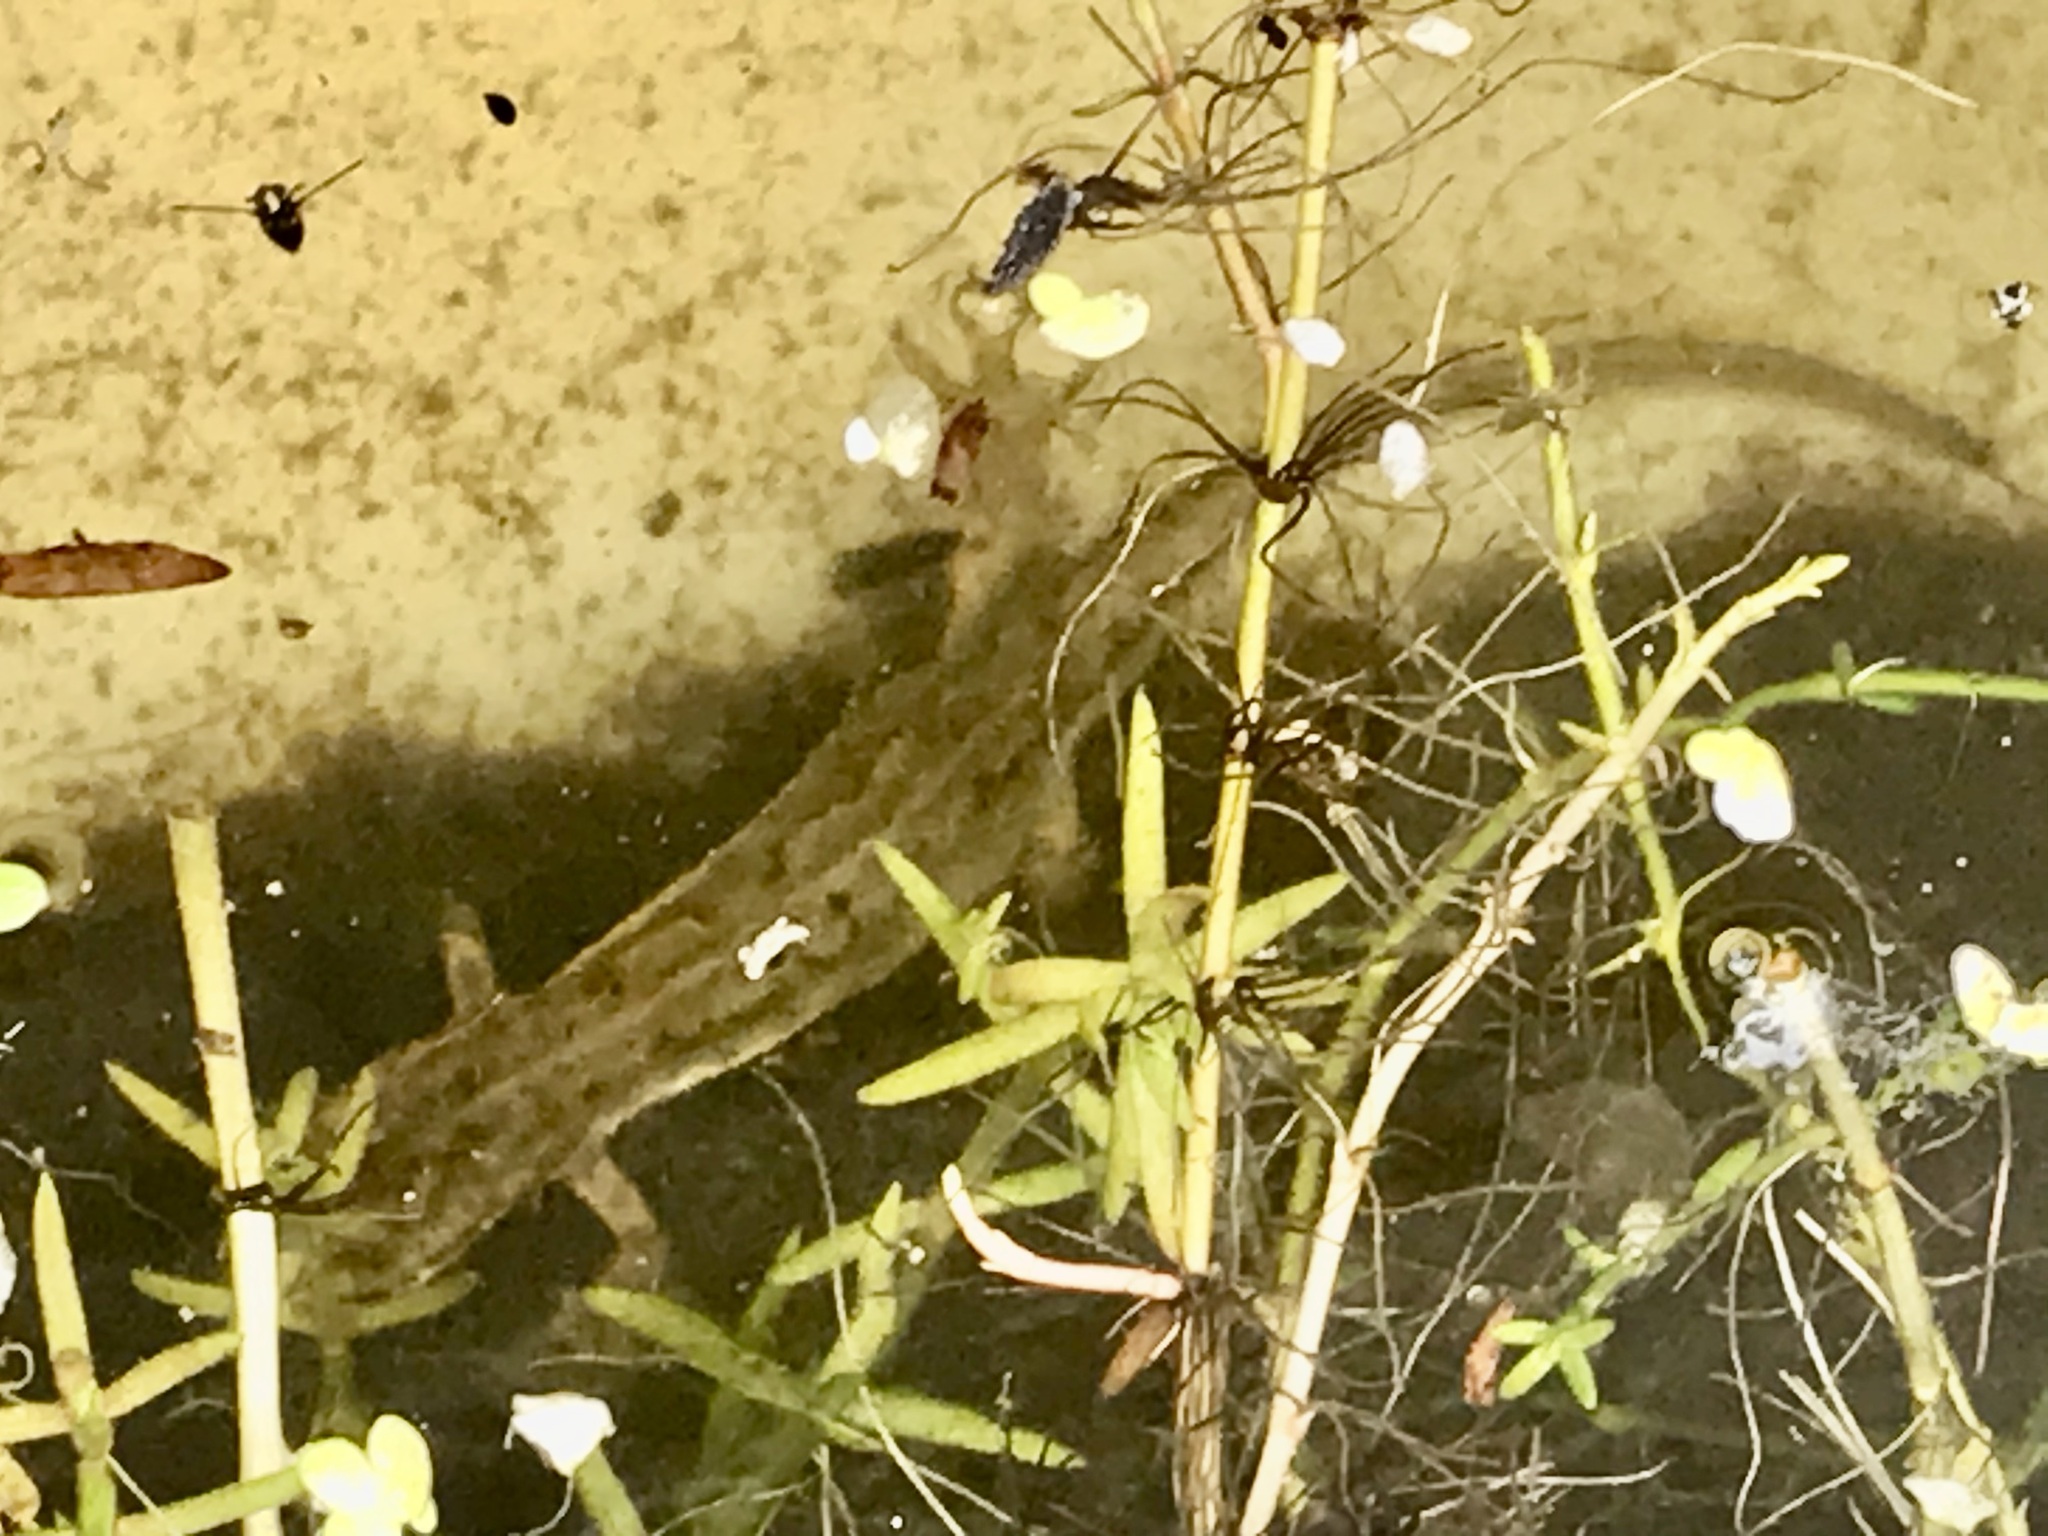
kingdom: Animalia
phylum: Chordata
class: Amphibia
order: Caudata
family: Salamandridae
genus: Lissotriton
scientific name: Lissotriton vulgaris
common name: Smooth newt
